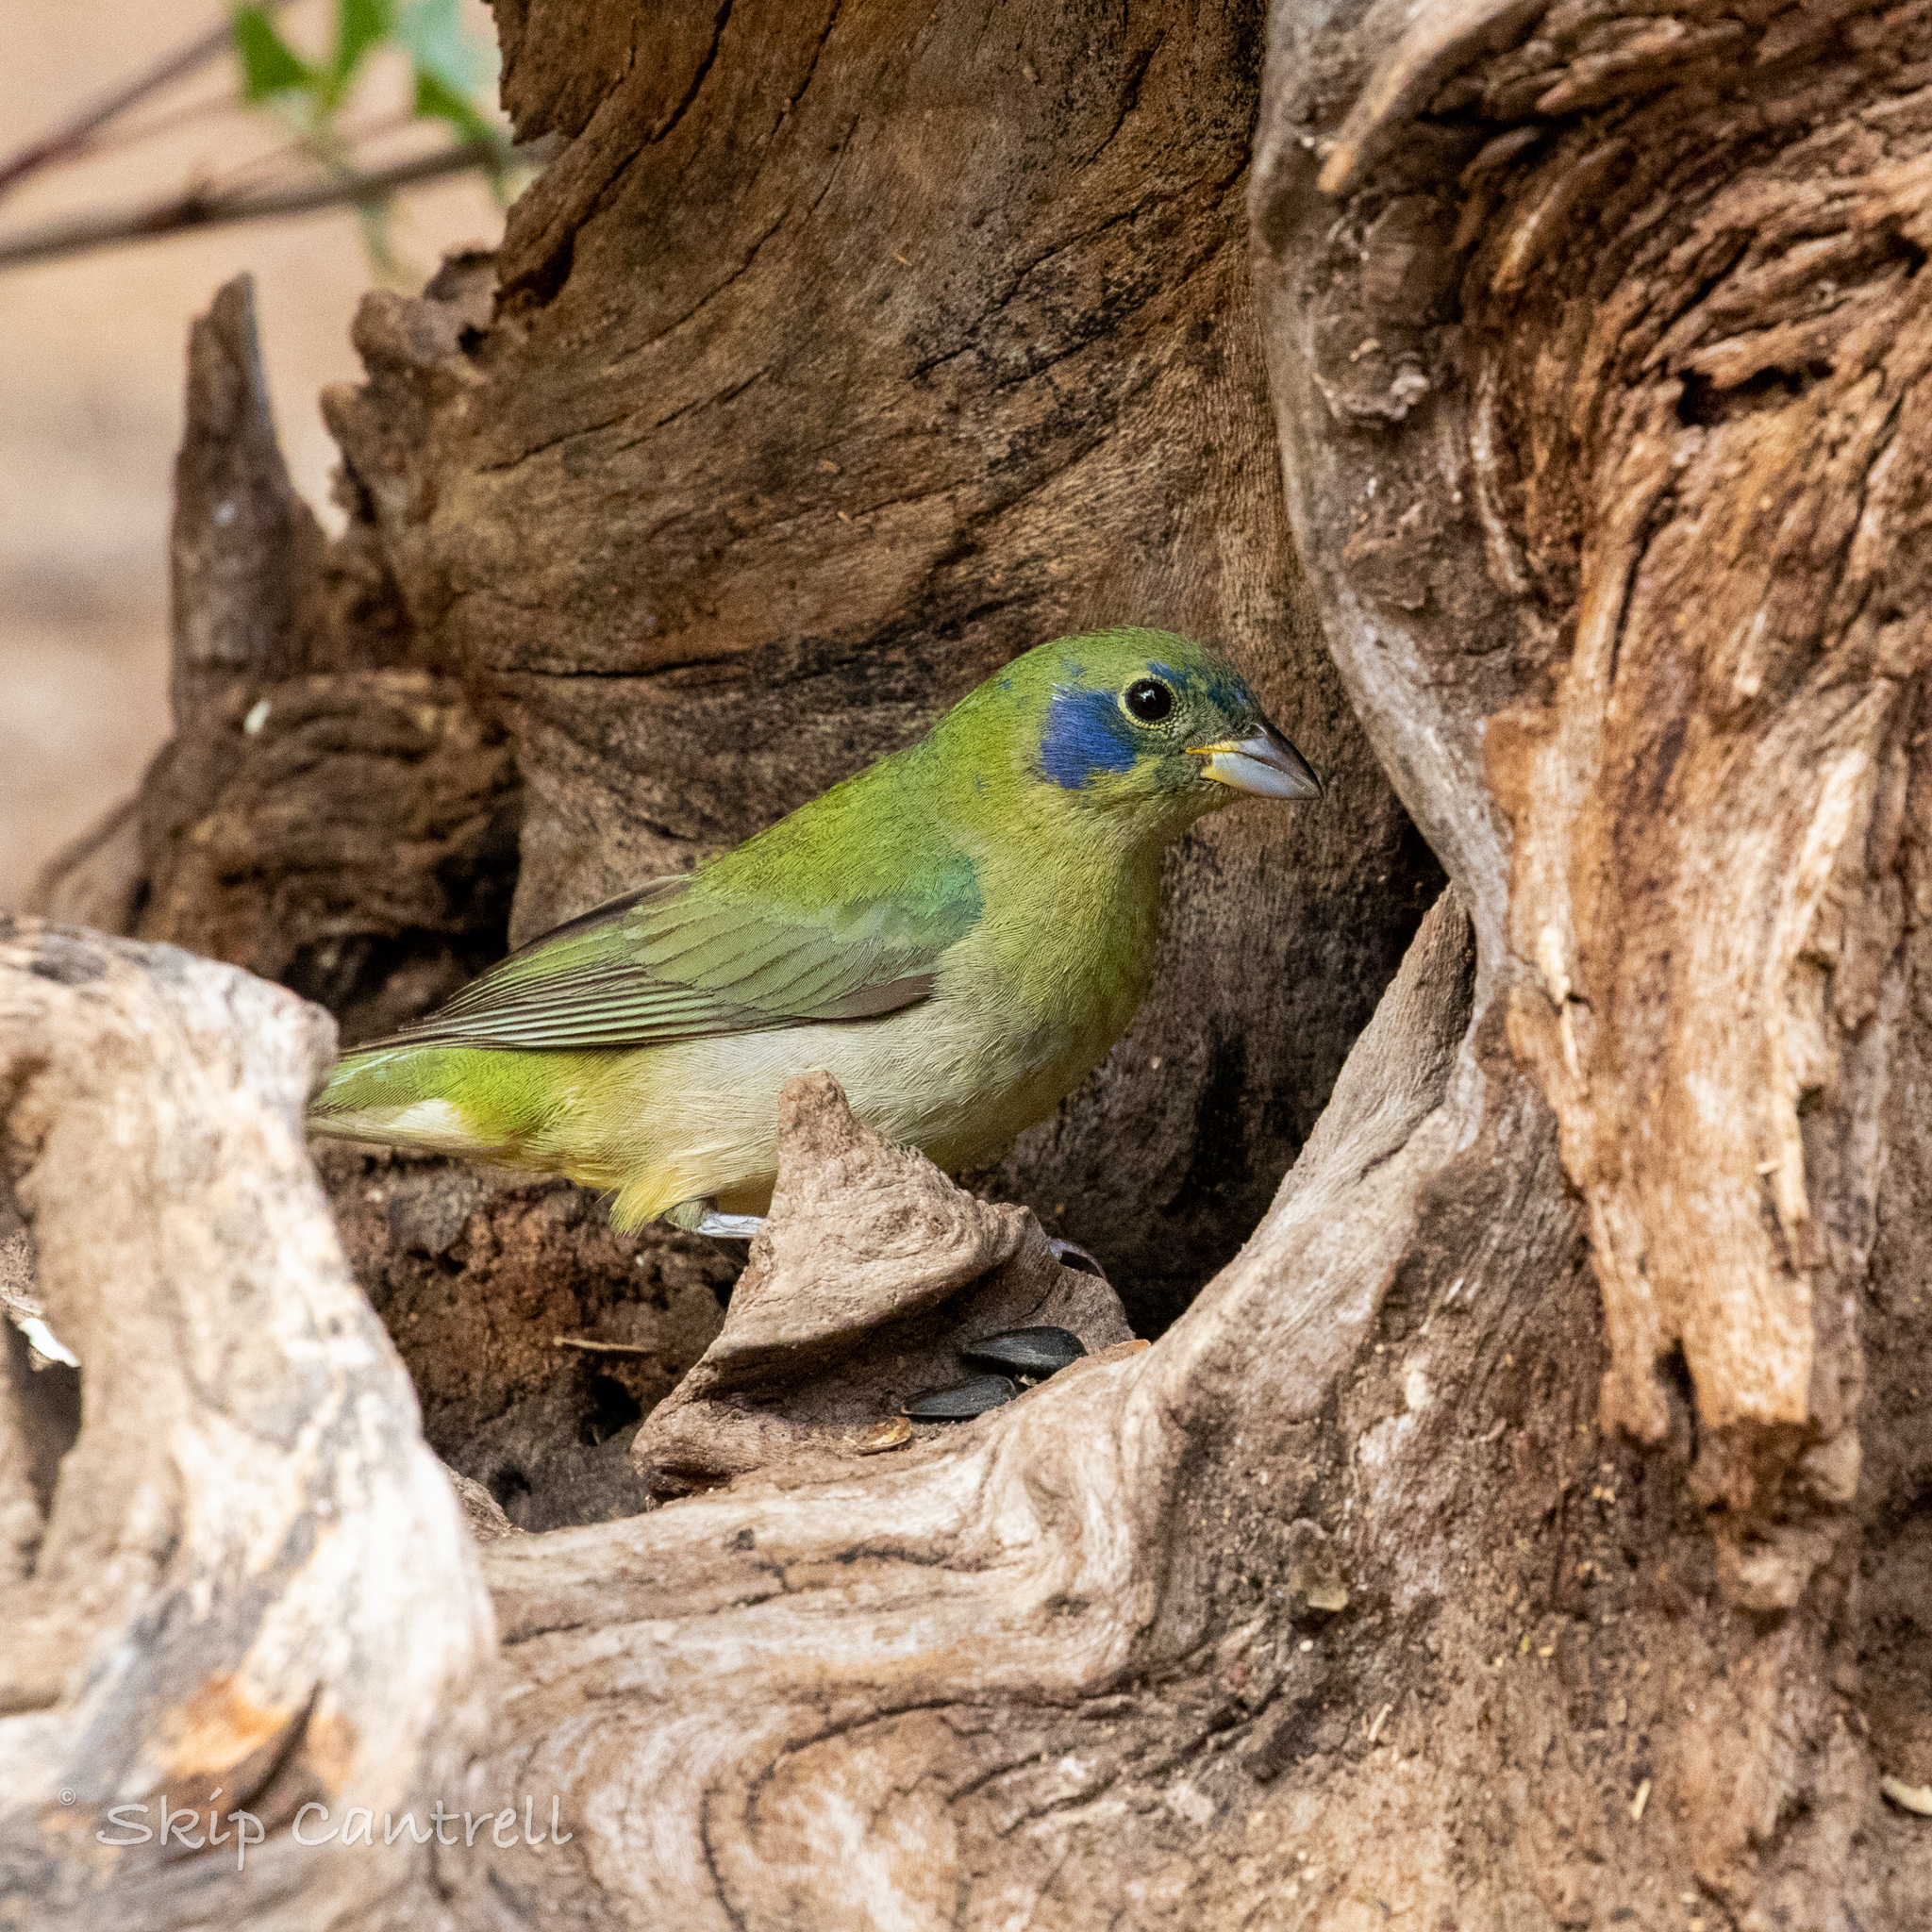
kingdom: Animalia
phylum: Chordata
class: Aves
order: Passeriformes
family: Cardinalidae
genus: Passerina
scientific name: Passerina ciris
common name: Painted bunting
